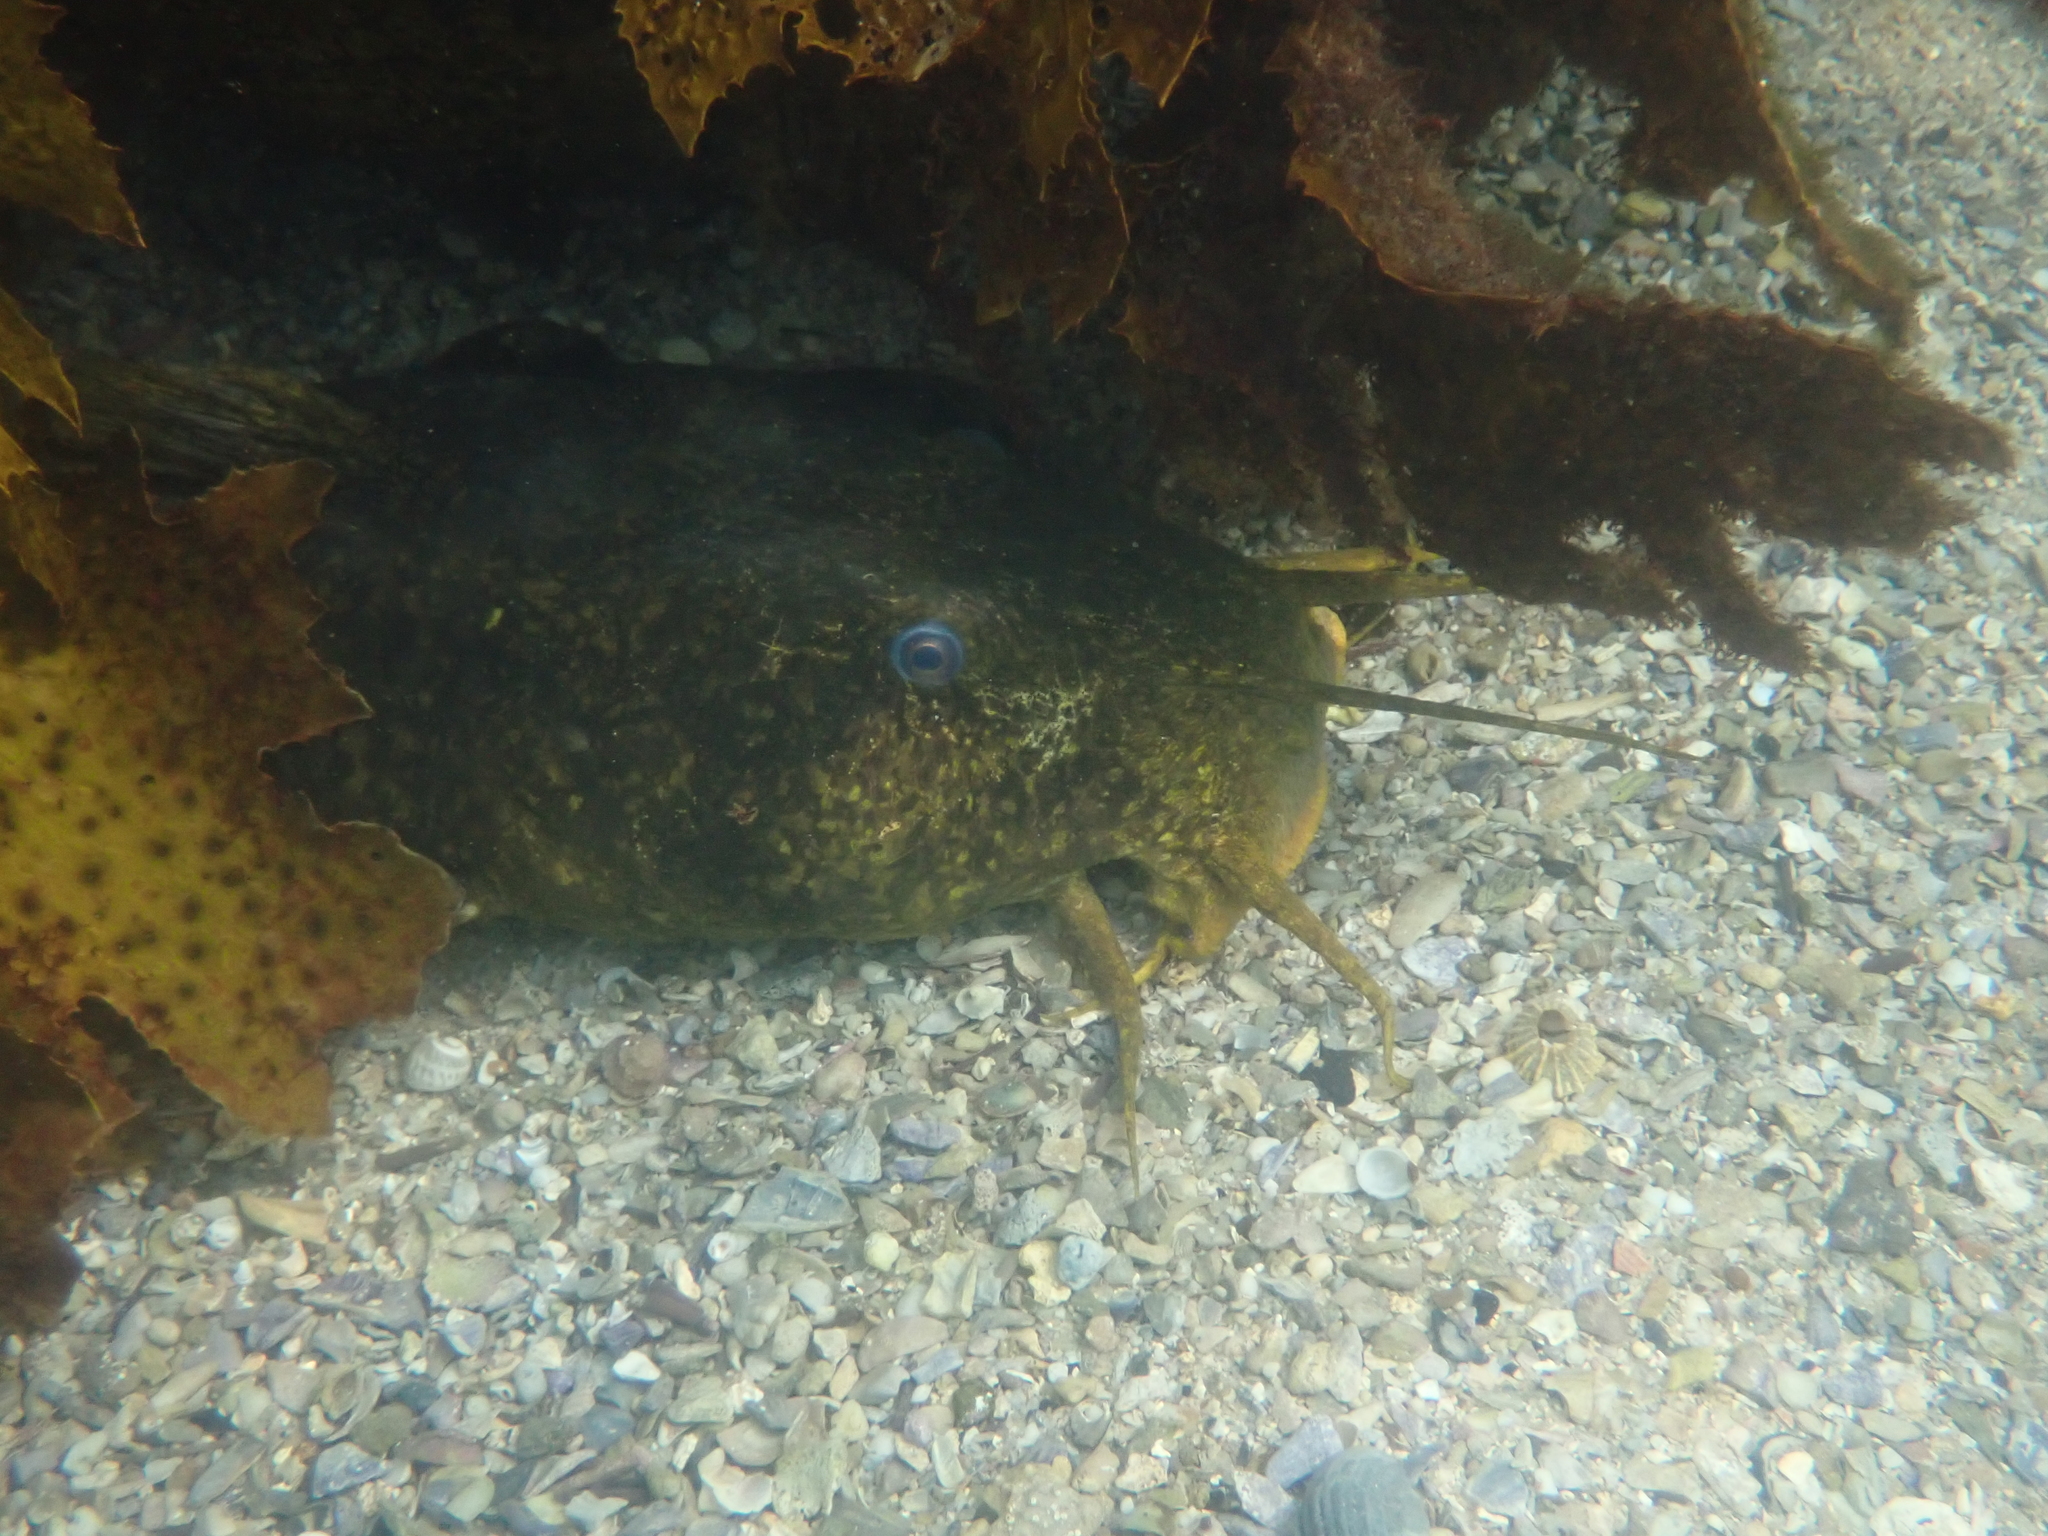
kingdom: Animalia
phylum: Chordata
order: Siluriformes
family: Plotosidae
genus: Cnidoglanis
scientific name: Cnidoglanis macrocephalus
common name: Cobbler
